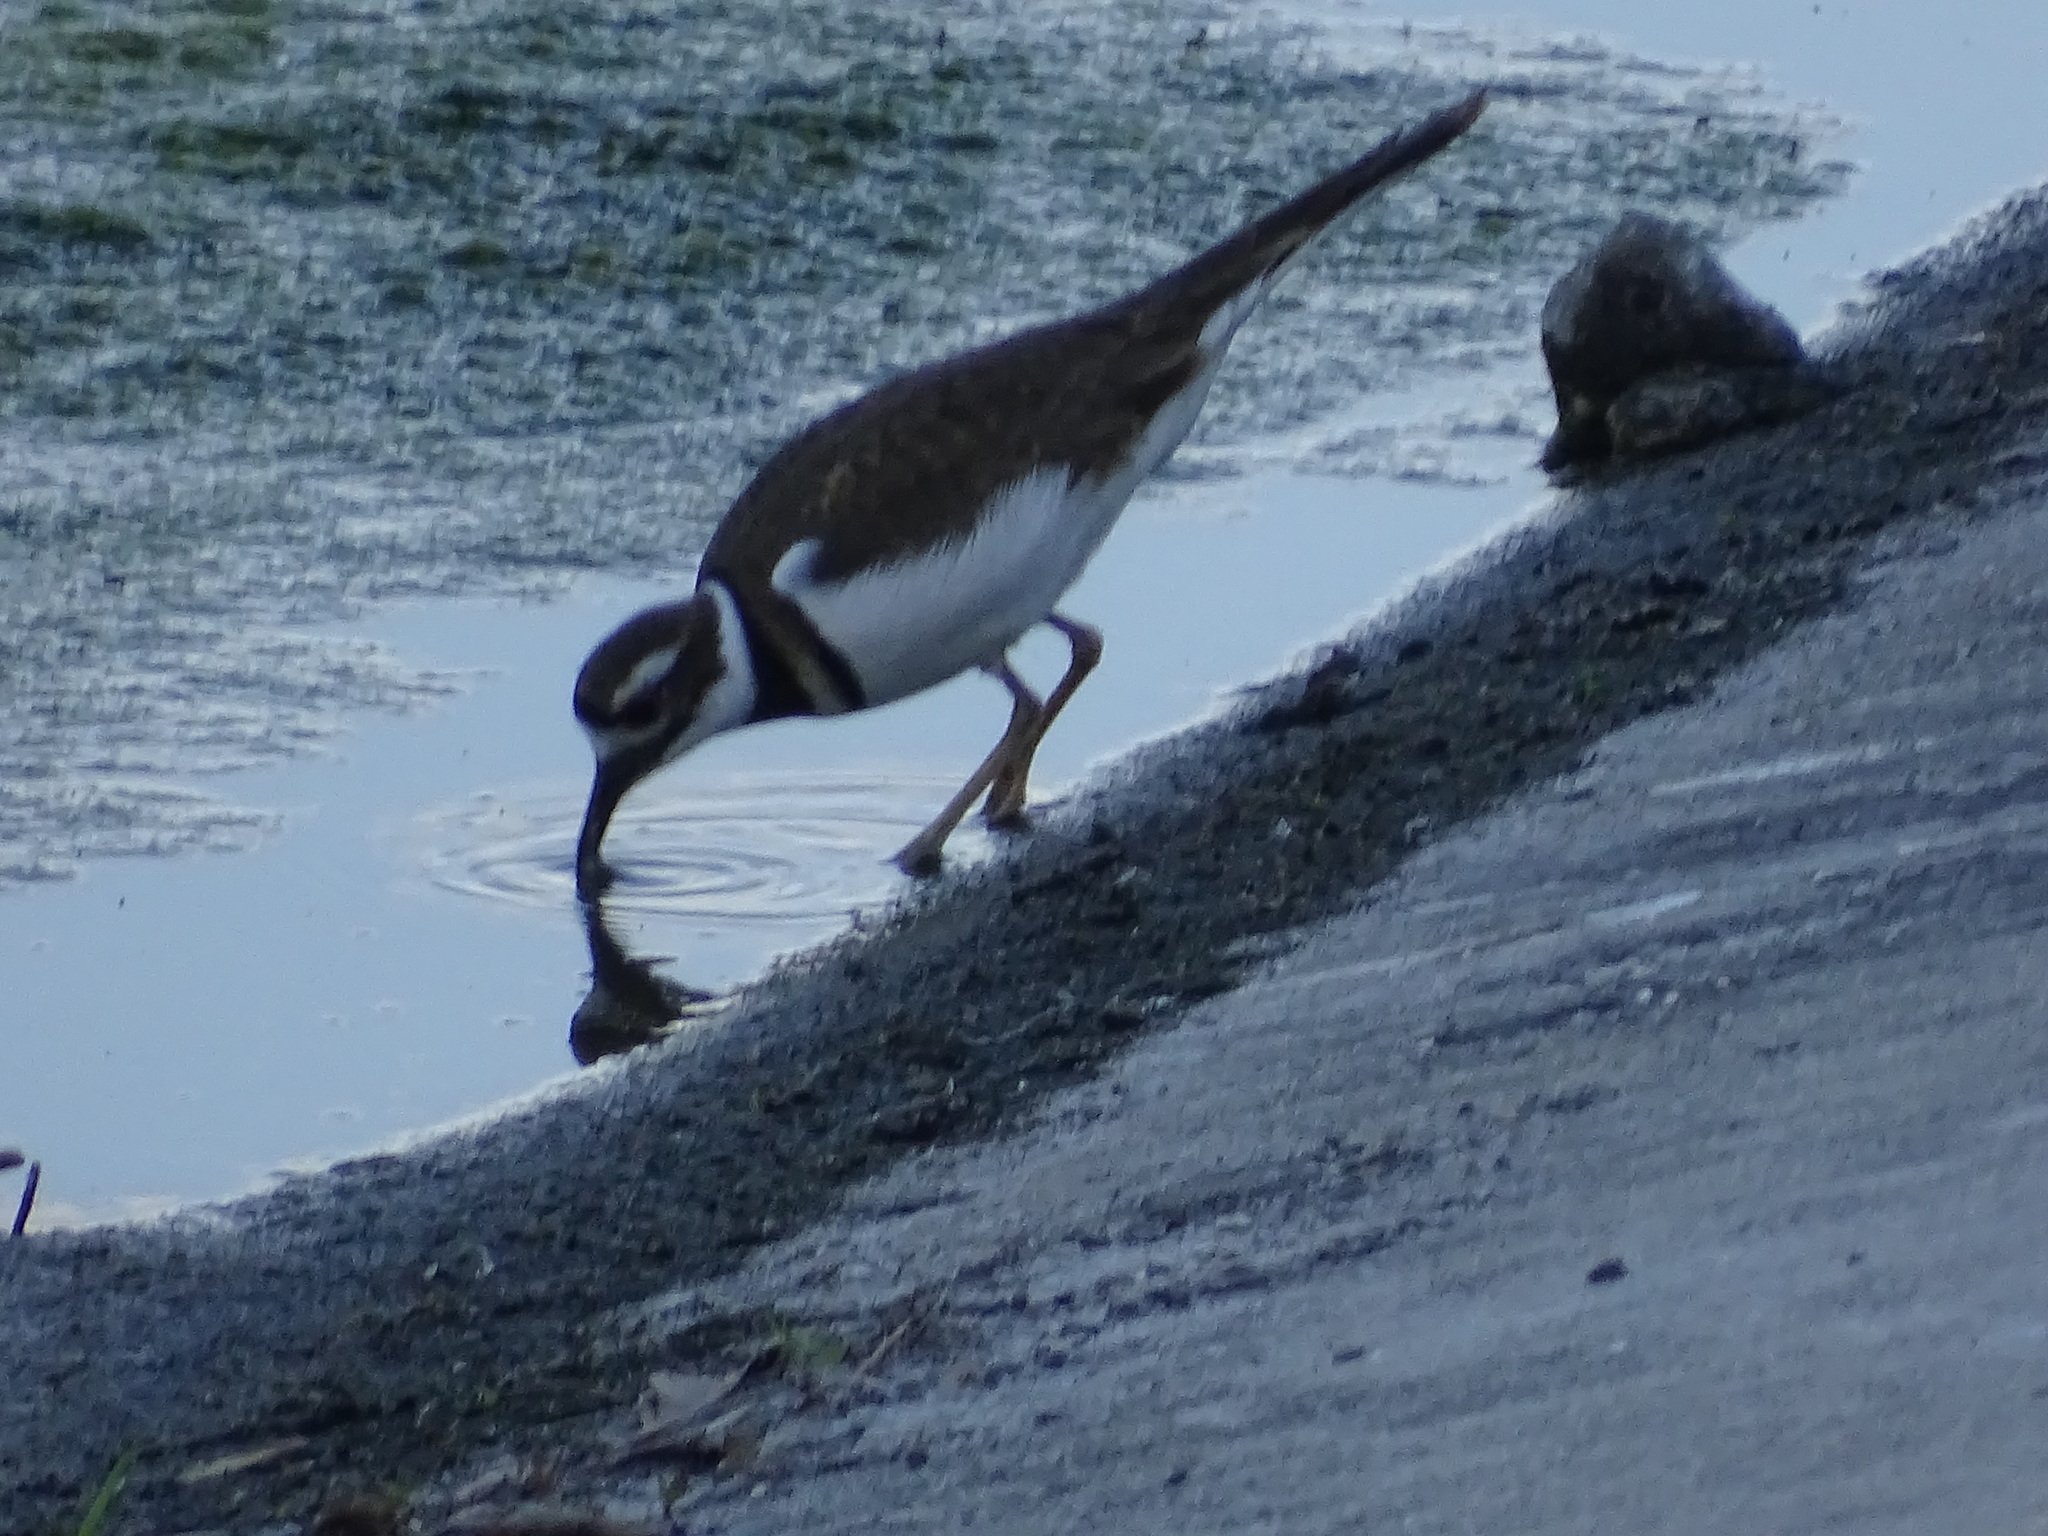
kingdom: Animalia
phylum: Chordata
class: Aves
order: Charadriiformes
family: Charadriidae
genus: Charadrius
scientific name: Charadrius vociferus
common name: Killdeer
